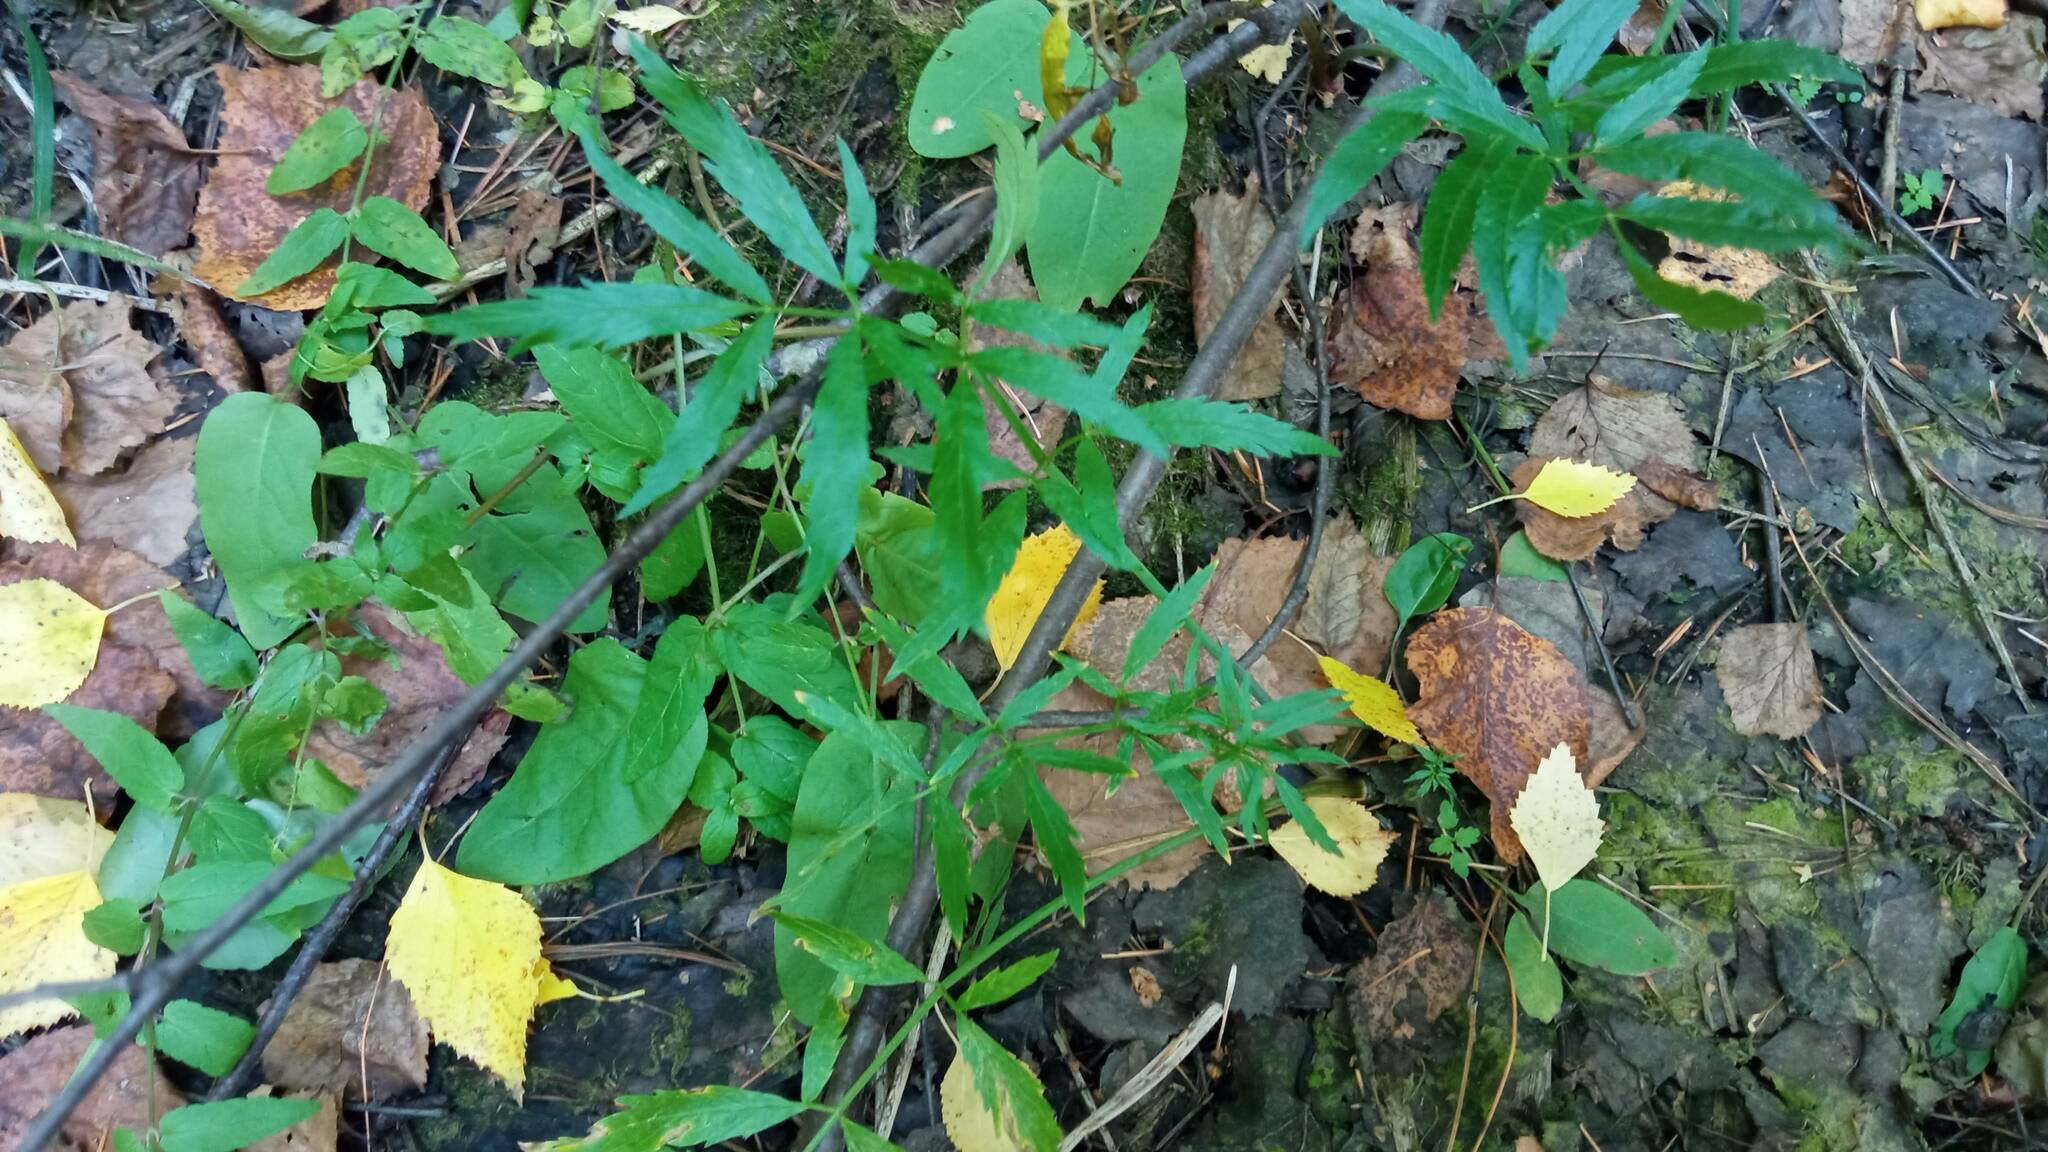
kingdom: Plantae
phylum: Tracheophyta
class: Magnoliopsida
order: Apiales
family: Apiaceae
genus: Cicuta
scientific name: Cicuta virosa
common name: Cowbane
